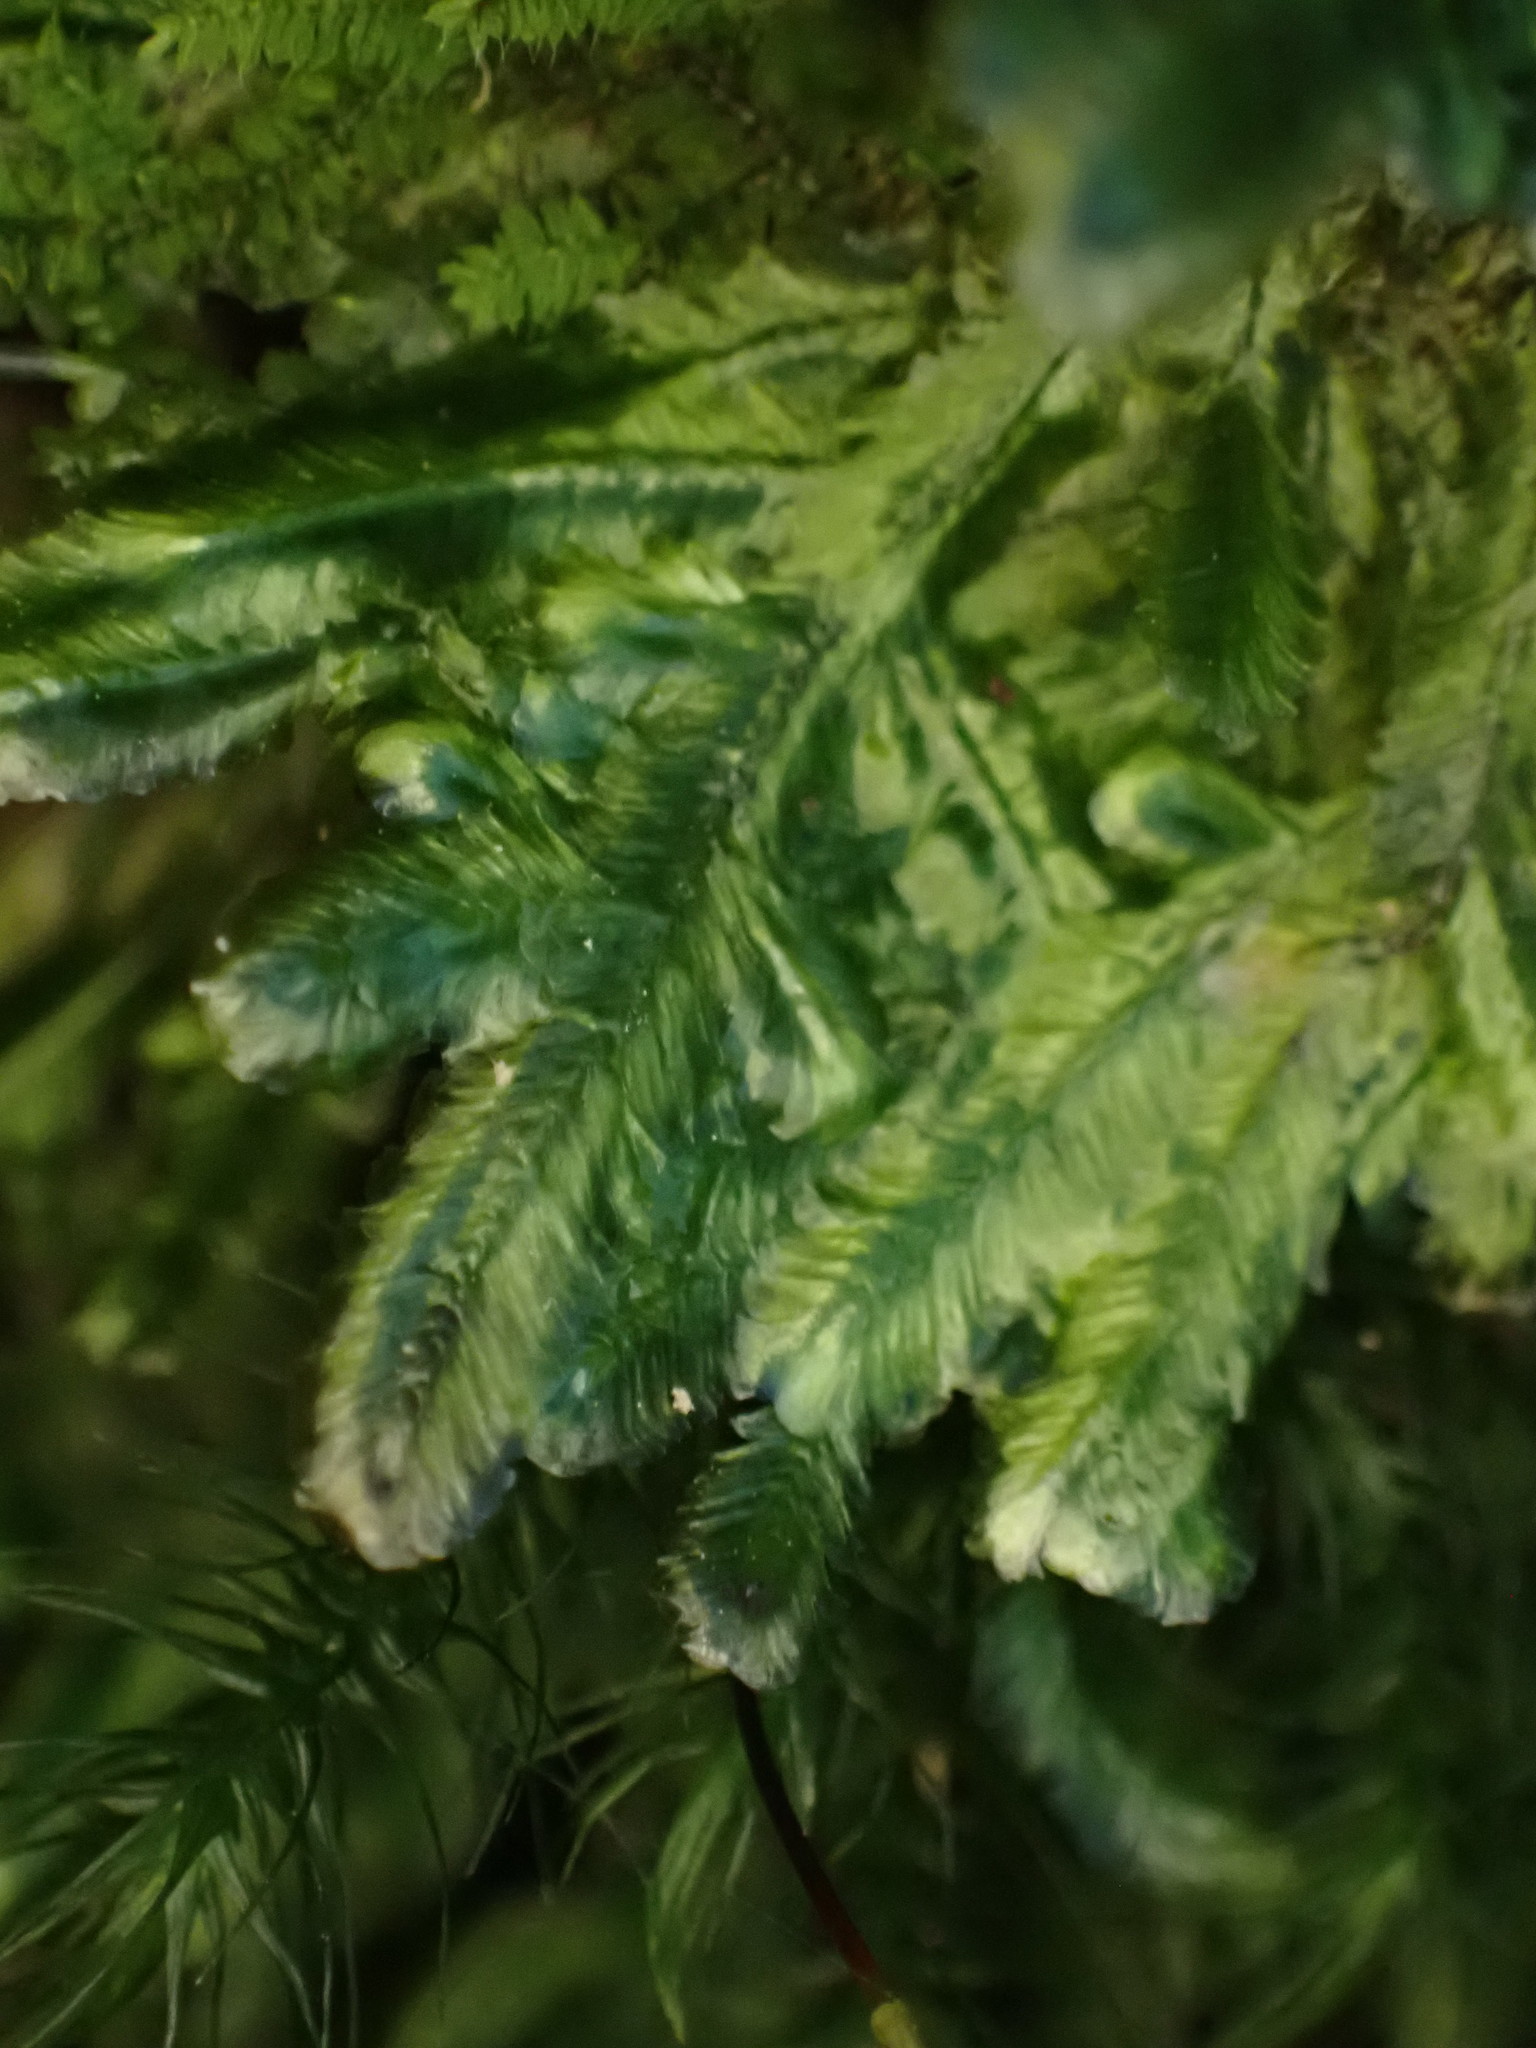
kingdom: Plantae
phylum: Bryophyta
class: Bryopsida
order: Hypnales
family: Lembophyllaceae
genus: Margrethypnum
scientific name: Margrethypnum falcifolium
